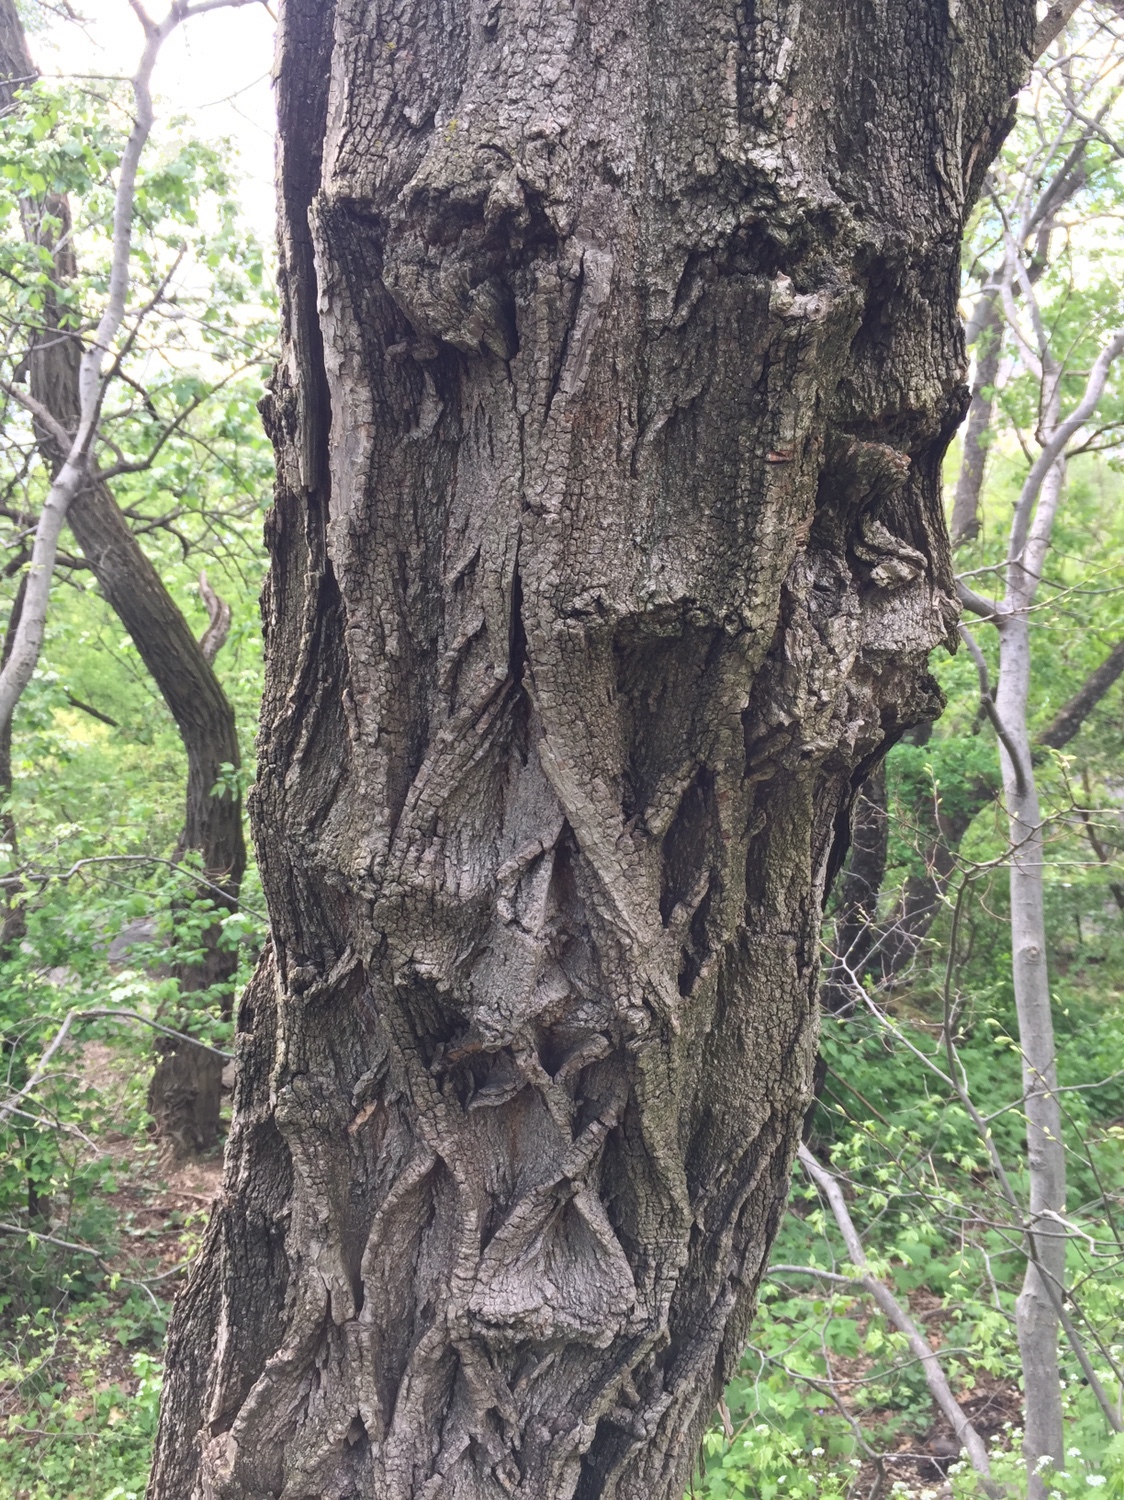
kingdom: Plantae
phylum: Tracheophyta
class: Magnoliopsida
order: Fabales
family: Fabaceae
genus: Robinia
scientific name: Robinia pseudoacacia
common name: Black locust
